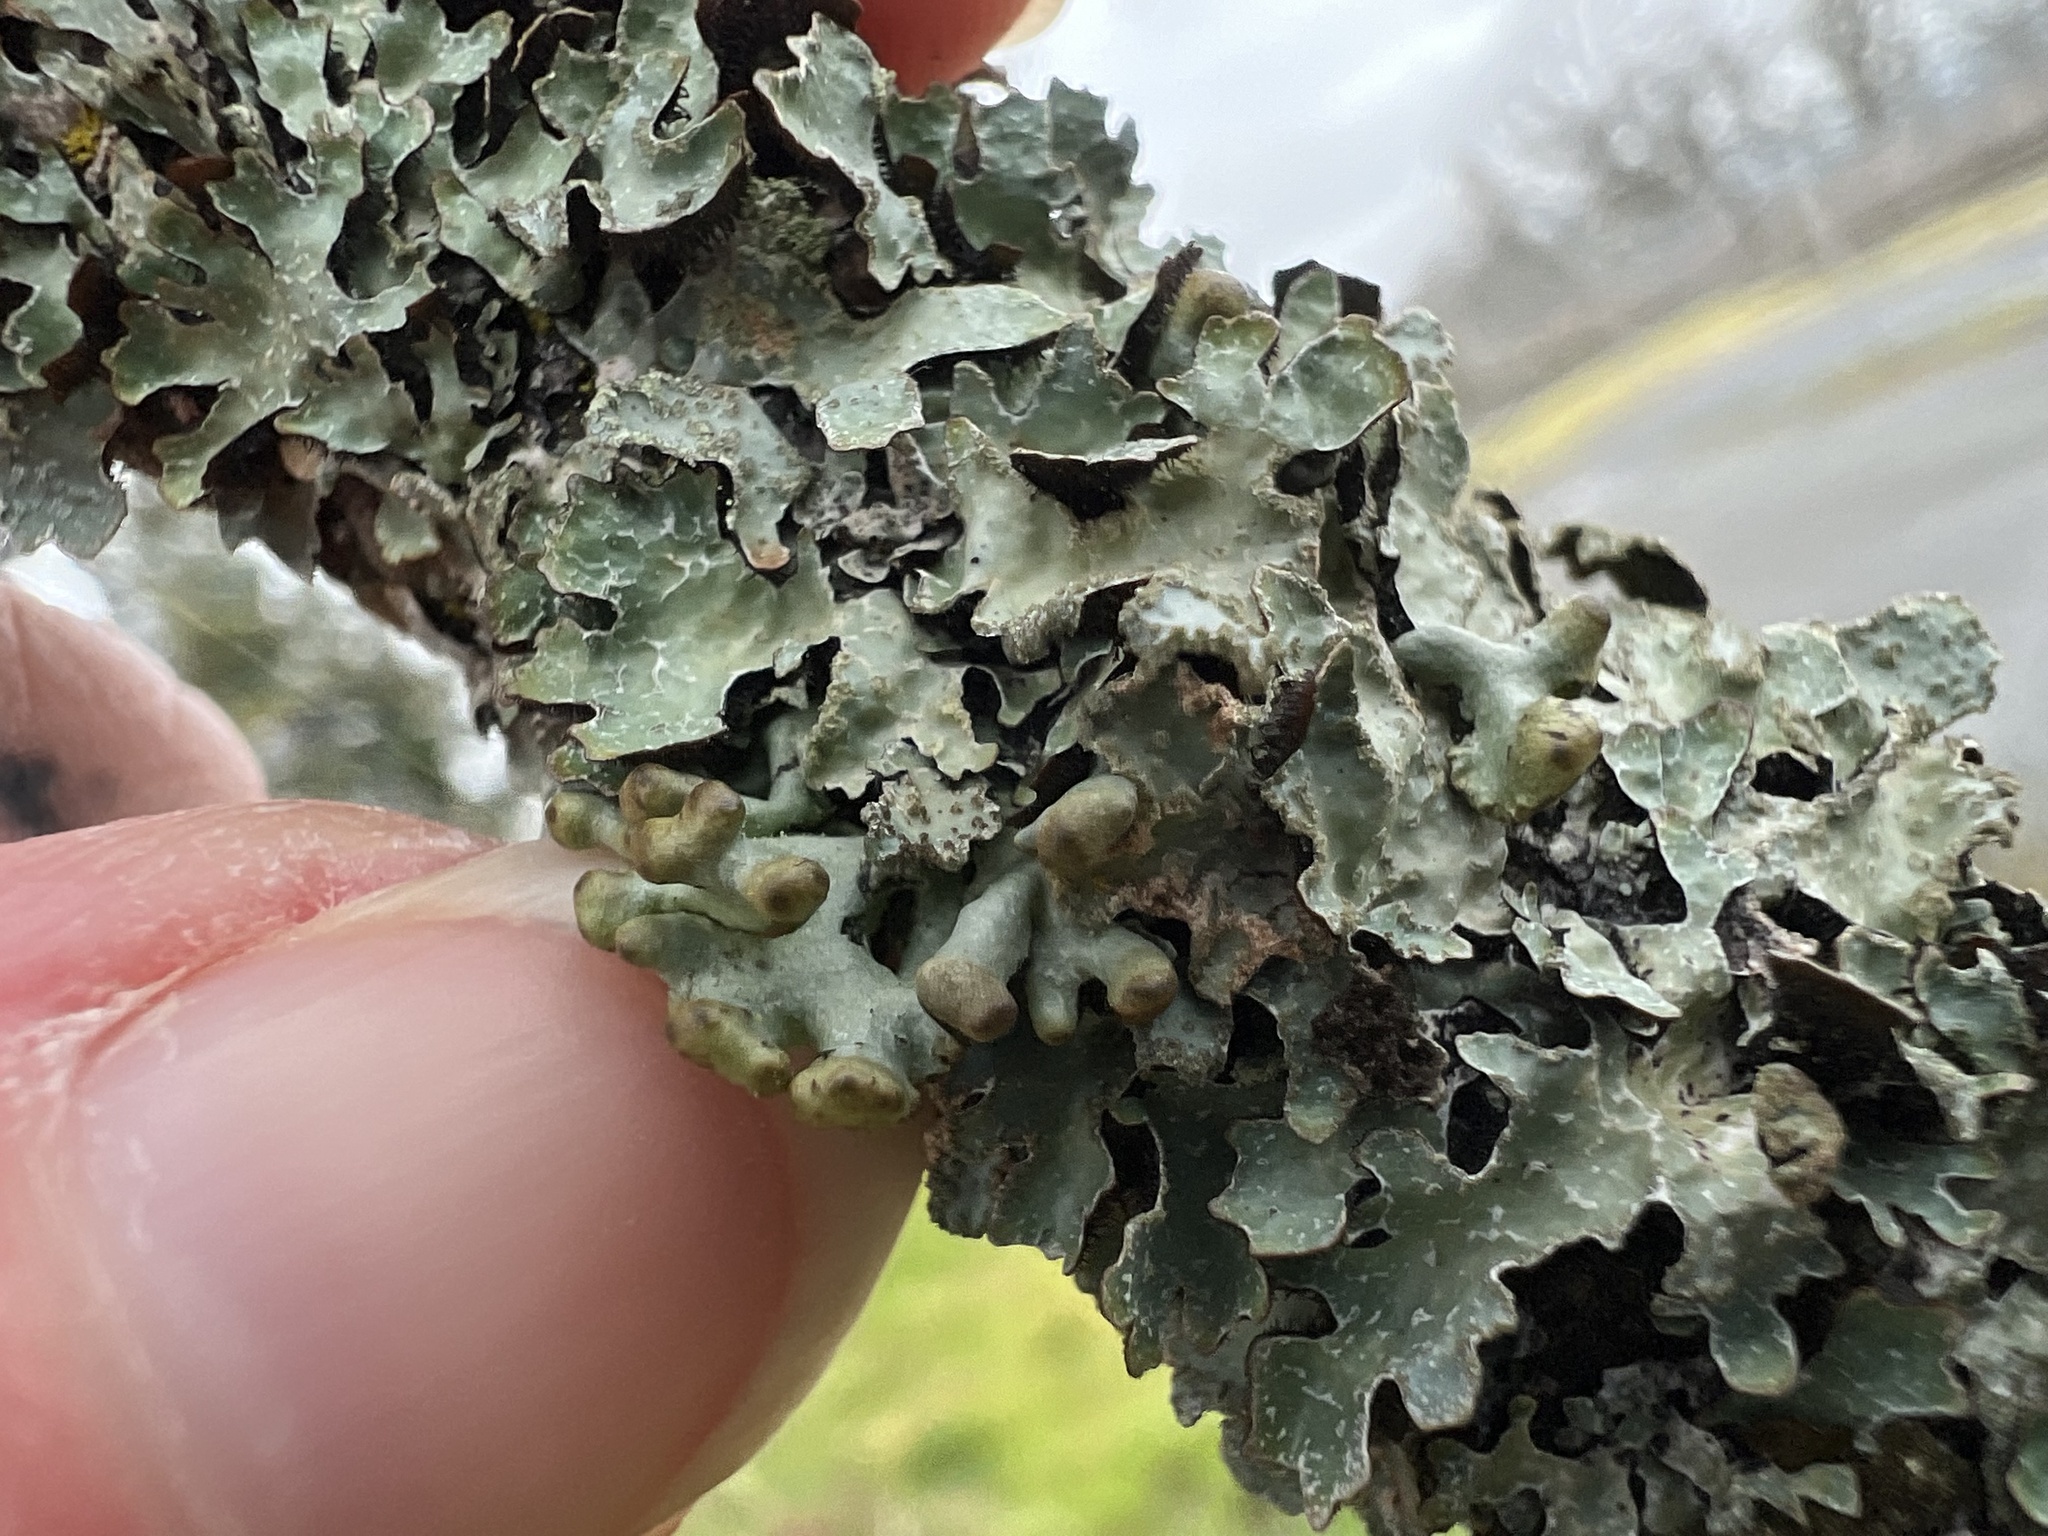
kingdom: Fungi
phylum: Ascomycota
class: Lecanoromycetes
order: Lecanorales
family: Parmeliaceae
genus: Hypogymnia
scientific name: Hypogymnia tubulosa
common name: Powder-headed tube lichen
